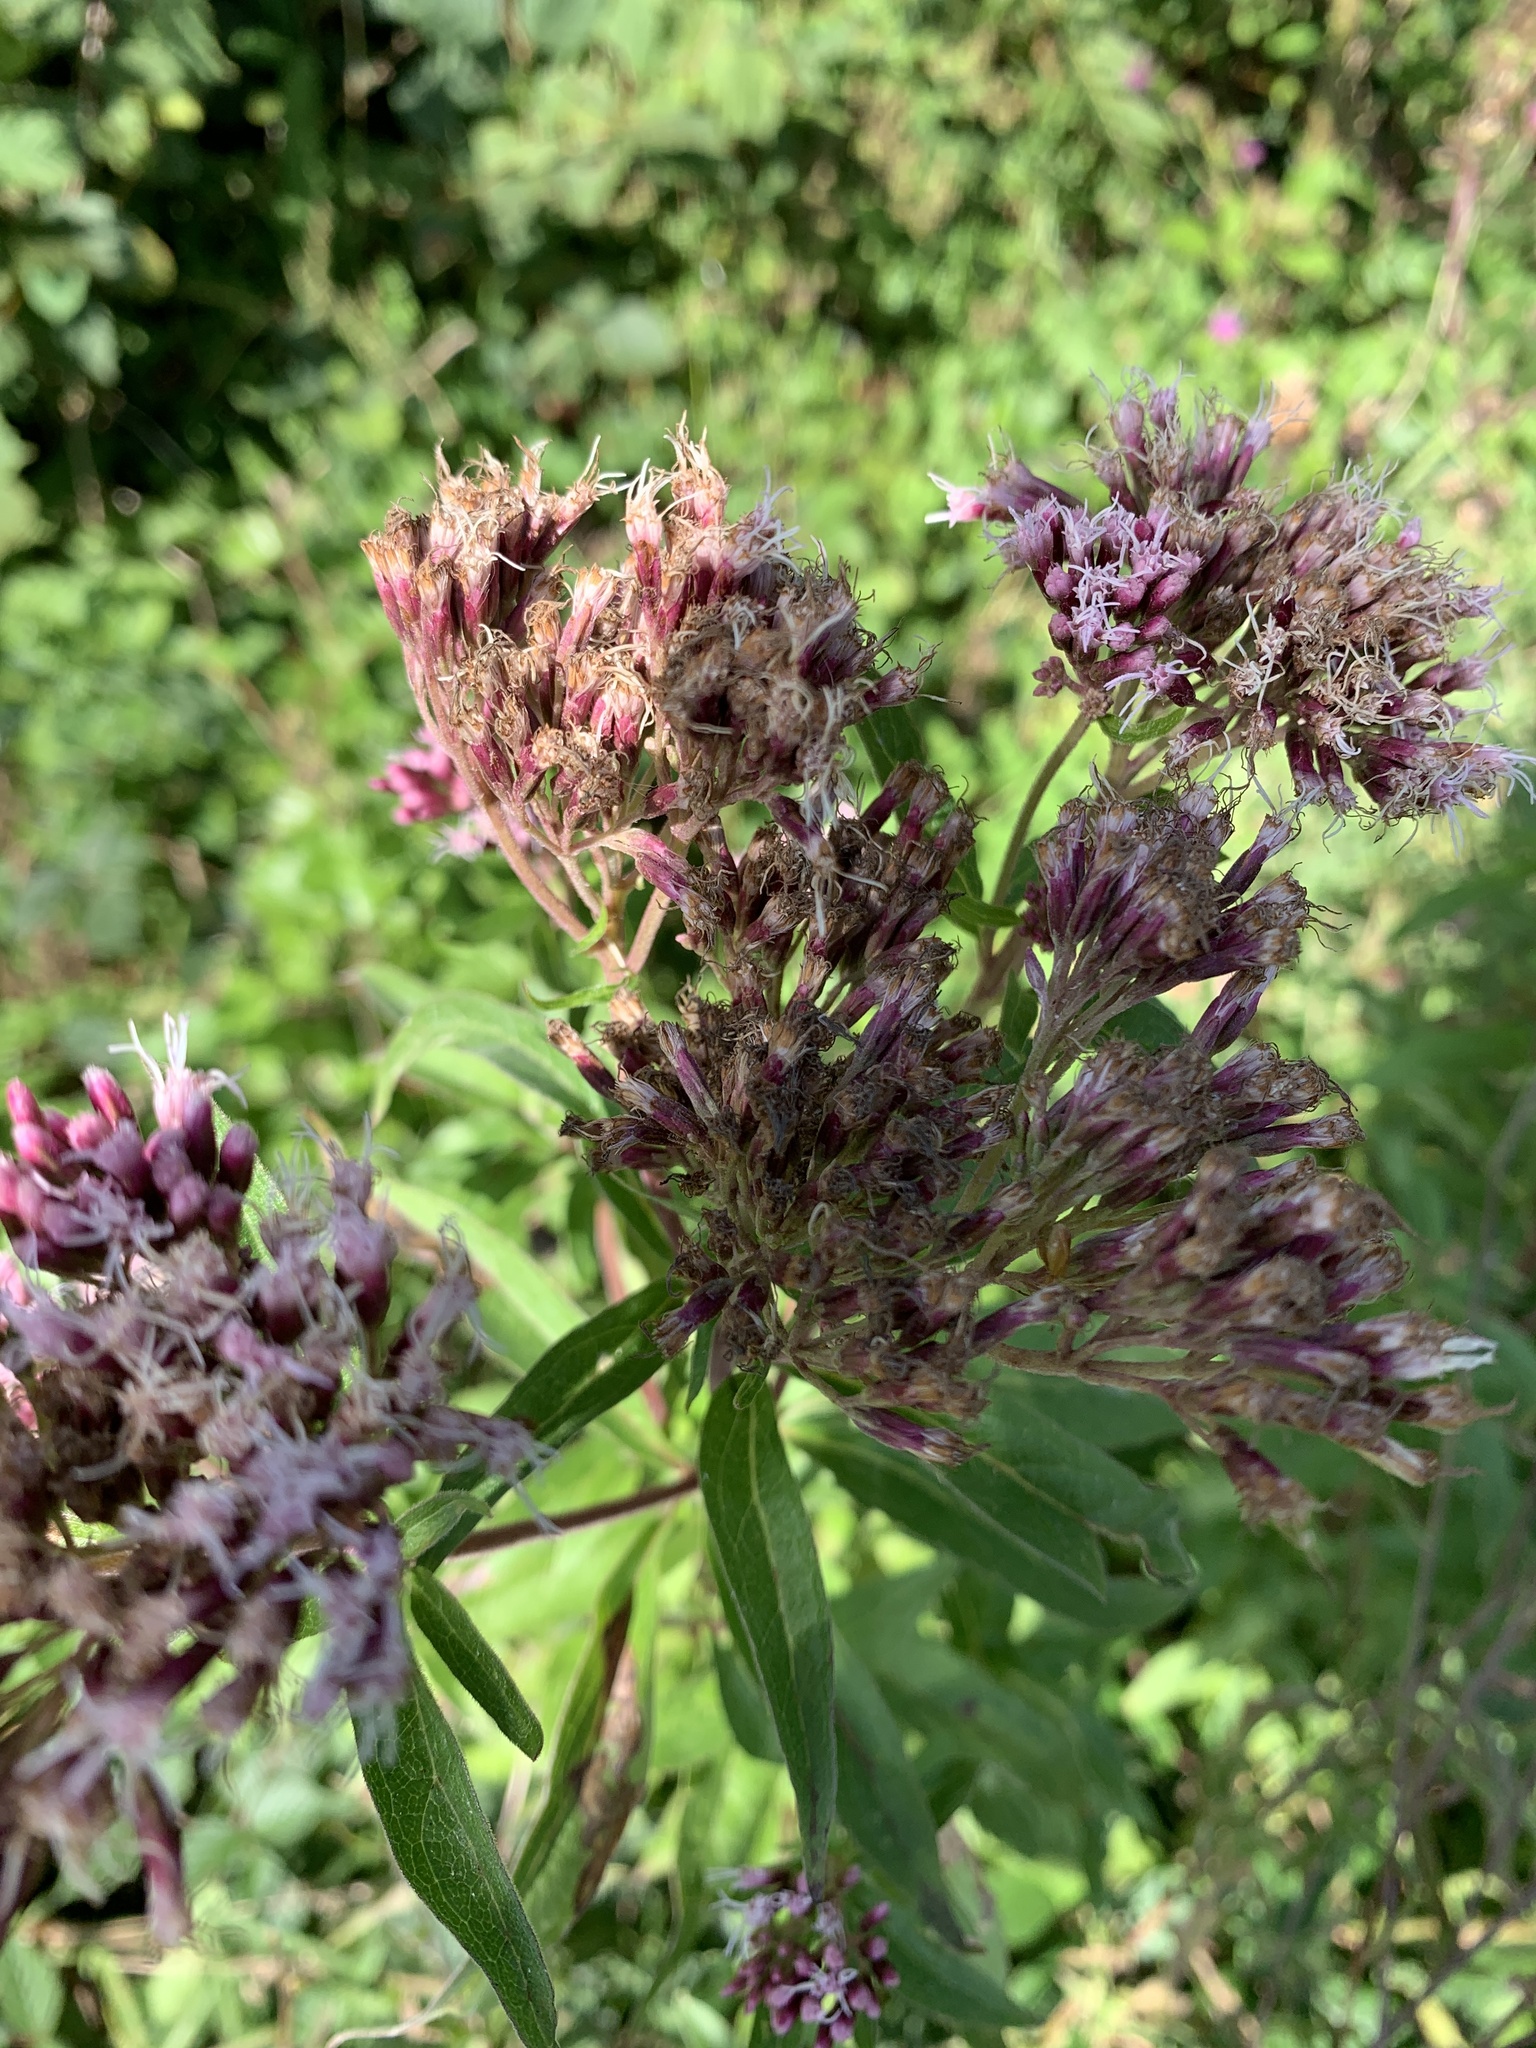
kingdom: Plantae
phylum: Tracheophyta
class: Magnoliopsida
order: Asterales
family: Asteraceae
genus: Eupatorium
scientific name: Eupatorium cannabinum
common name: Hemp-agrimony
